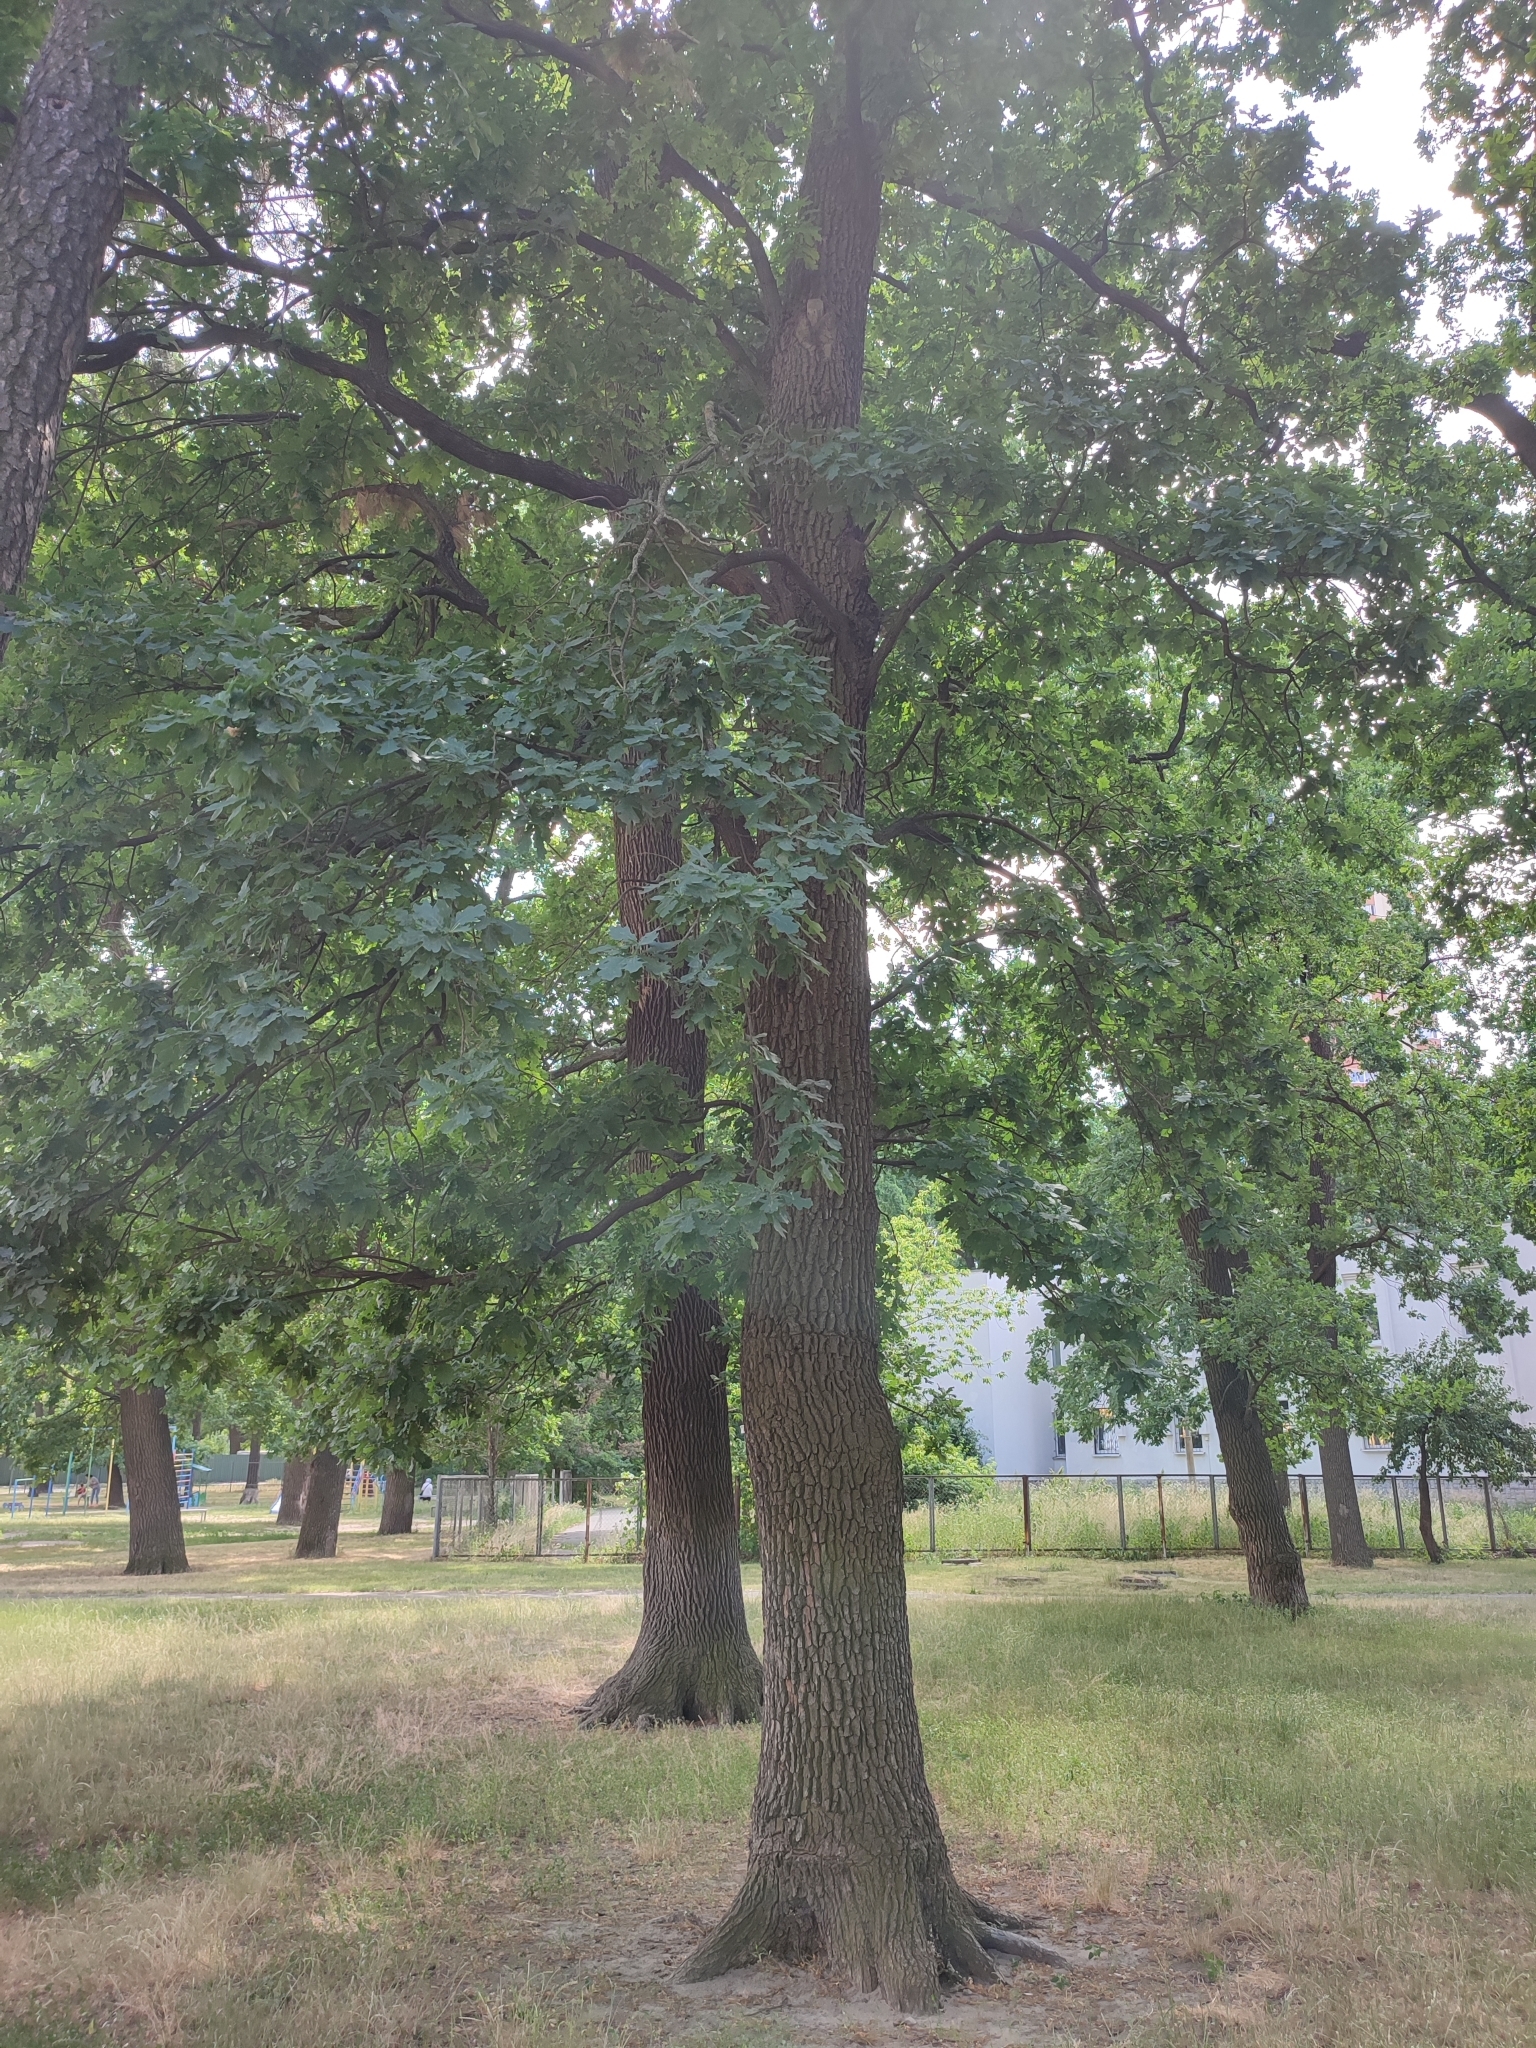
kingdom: Plantae
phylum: Tracheophyta
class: Magnoliopsida
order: Fagales
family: Fagaceae
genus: Quercus
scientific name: Quercus robur
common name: Pedunculate oak
